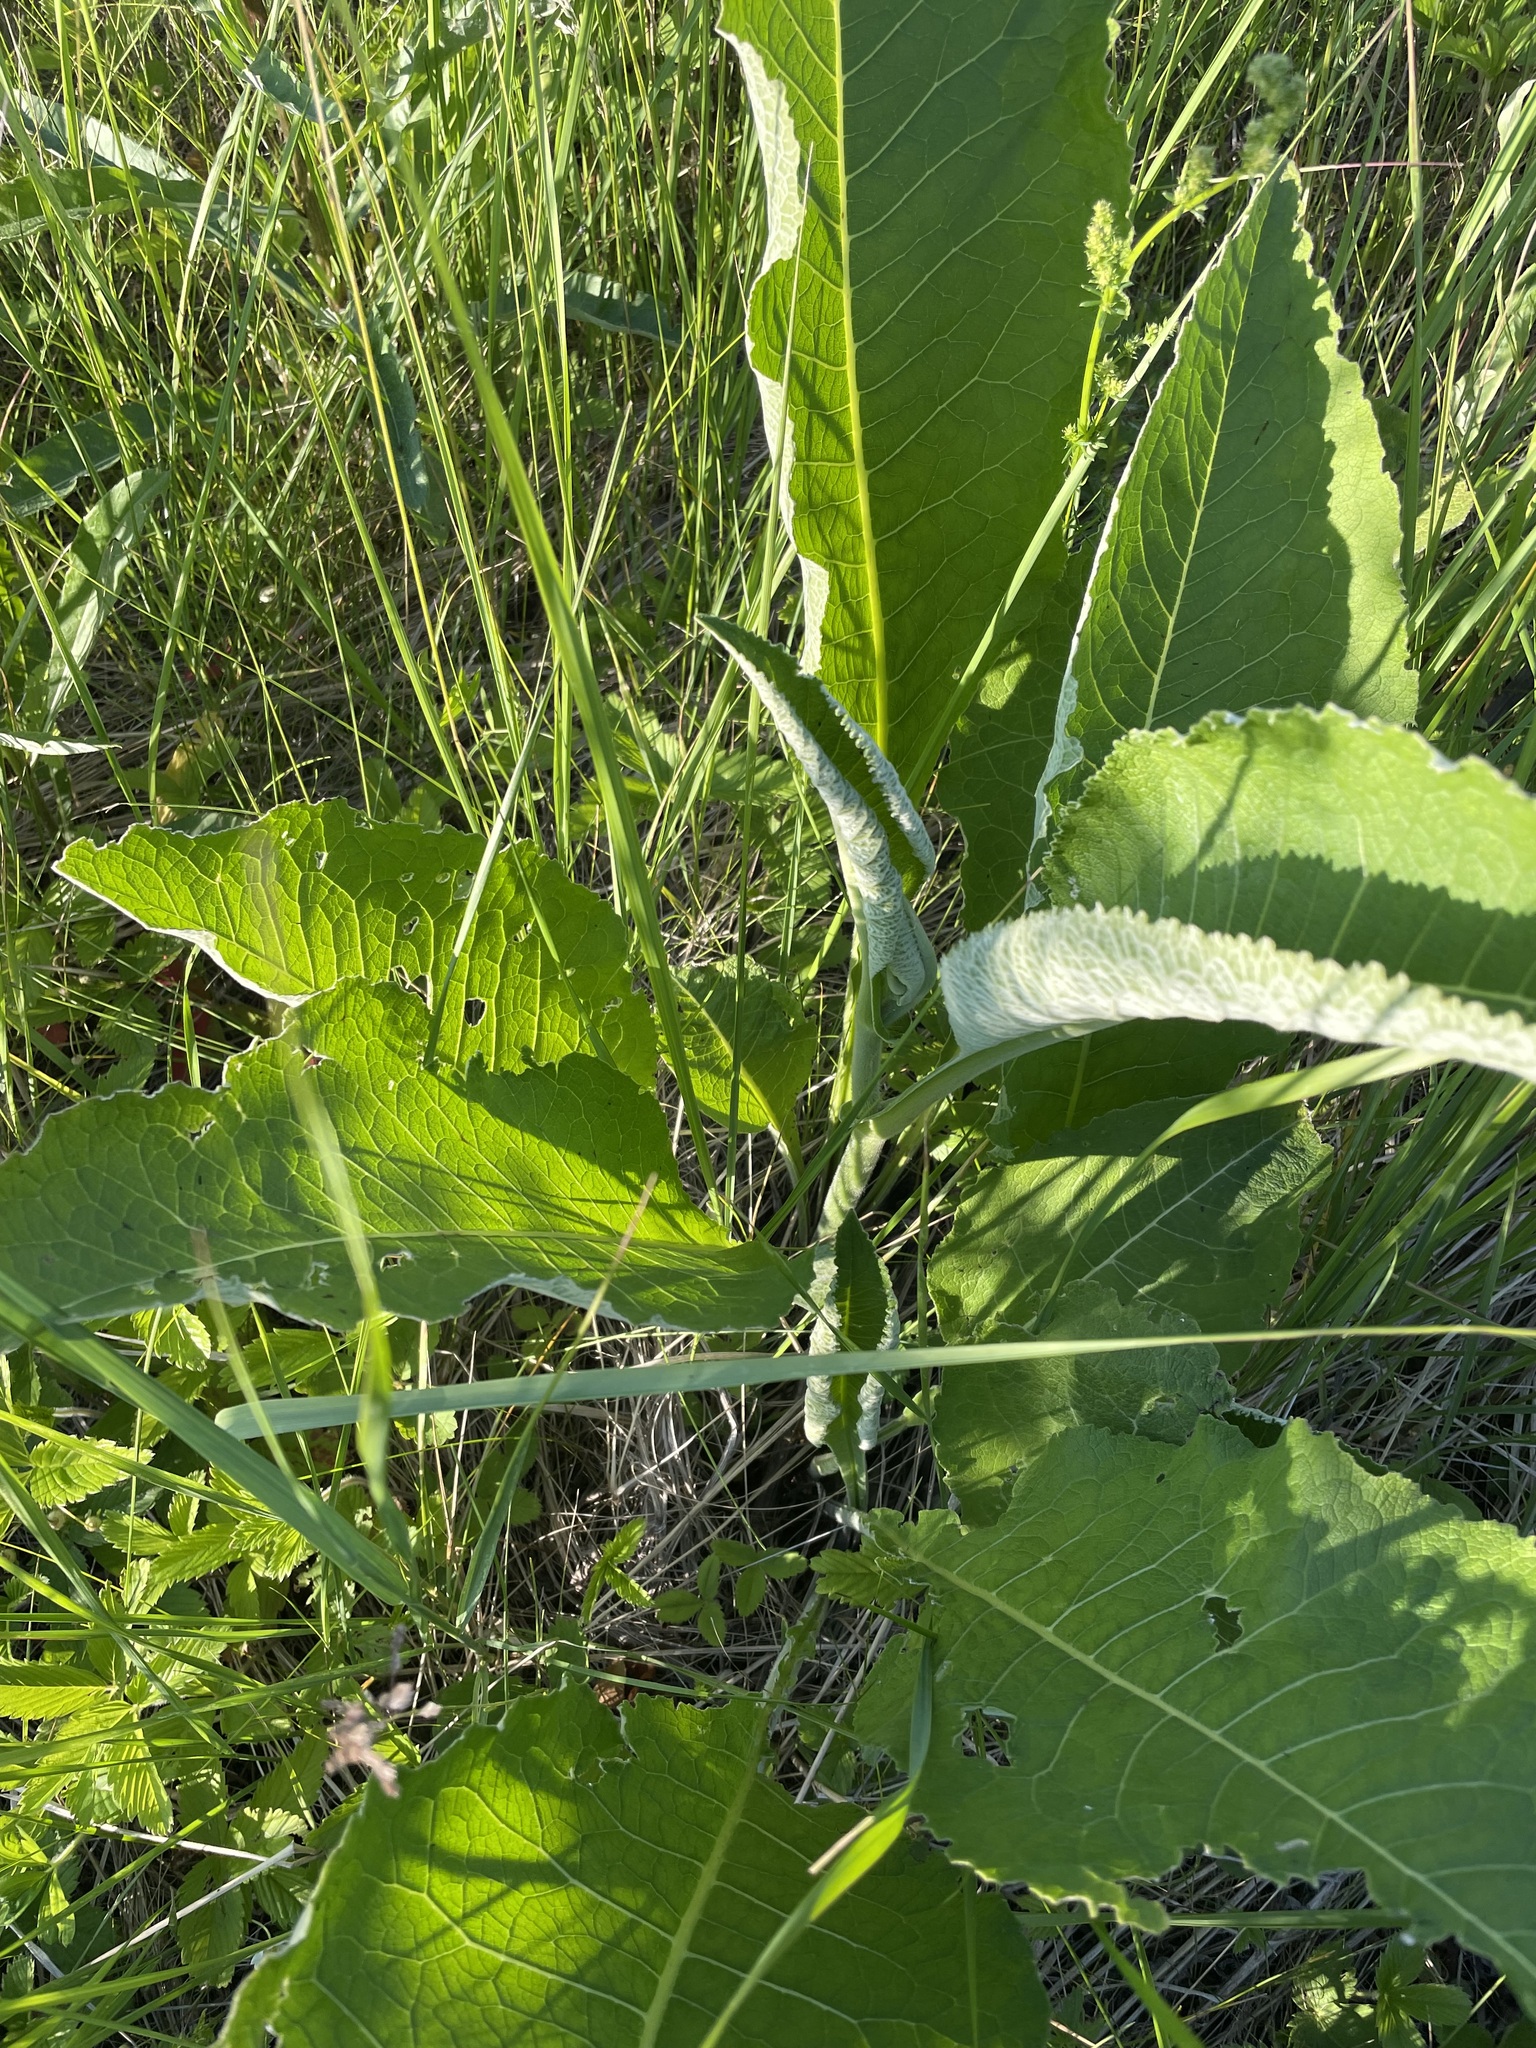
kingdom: Plantae
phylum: Tracheophyta
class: Magnoliopsida
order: Asterales
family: Asteraceae
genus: Inula
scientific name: Inula helenium
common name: Elecampane
